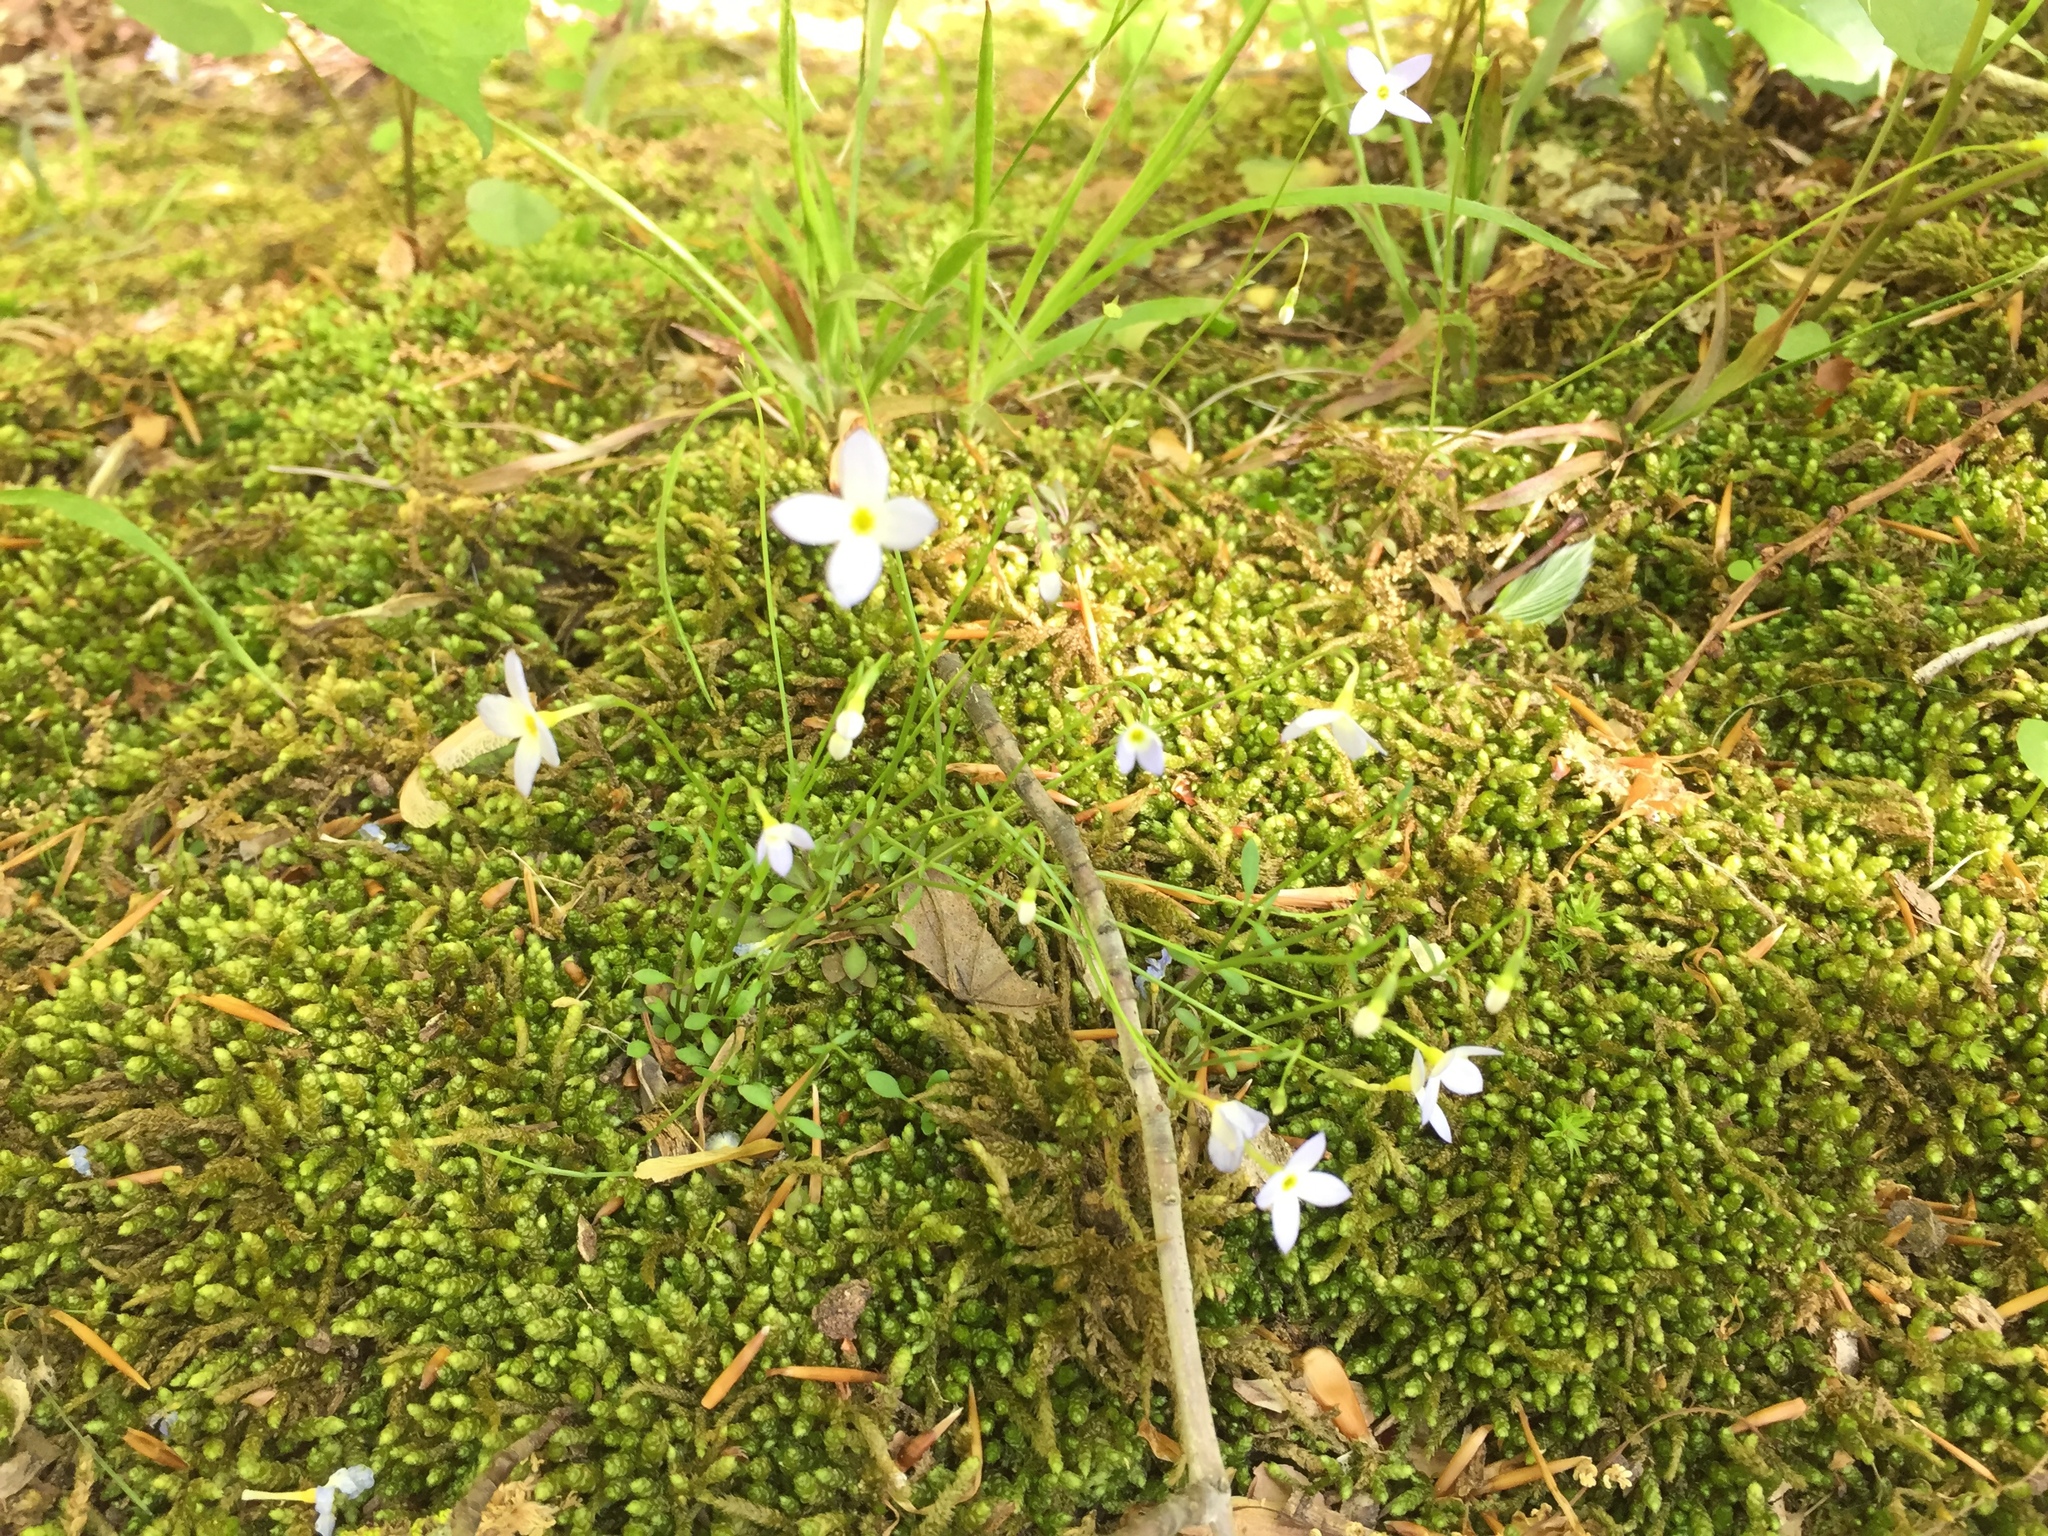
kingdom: Plantae
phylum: Tracheophyta
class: Magnoliopsida
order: Gentianales
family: Rubiaceae
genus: Houstonia
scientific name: Houstonia caerulea
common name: Bluets
